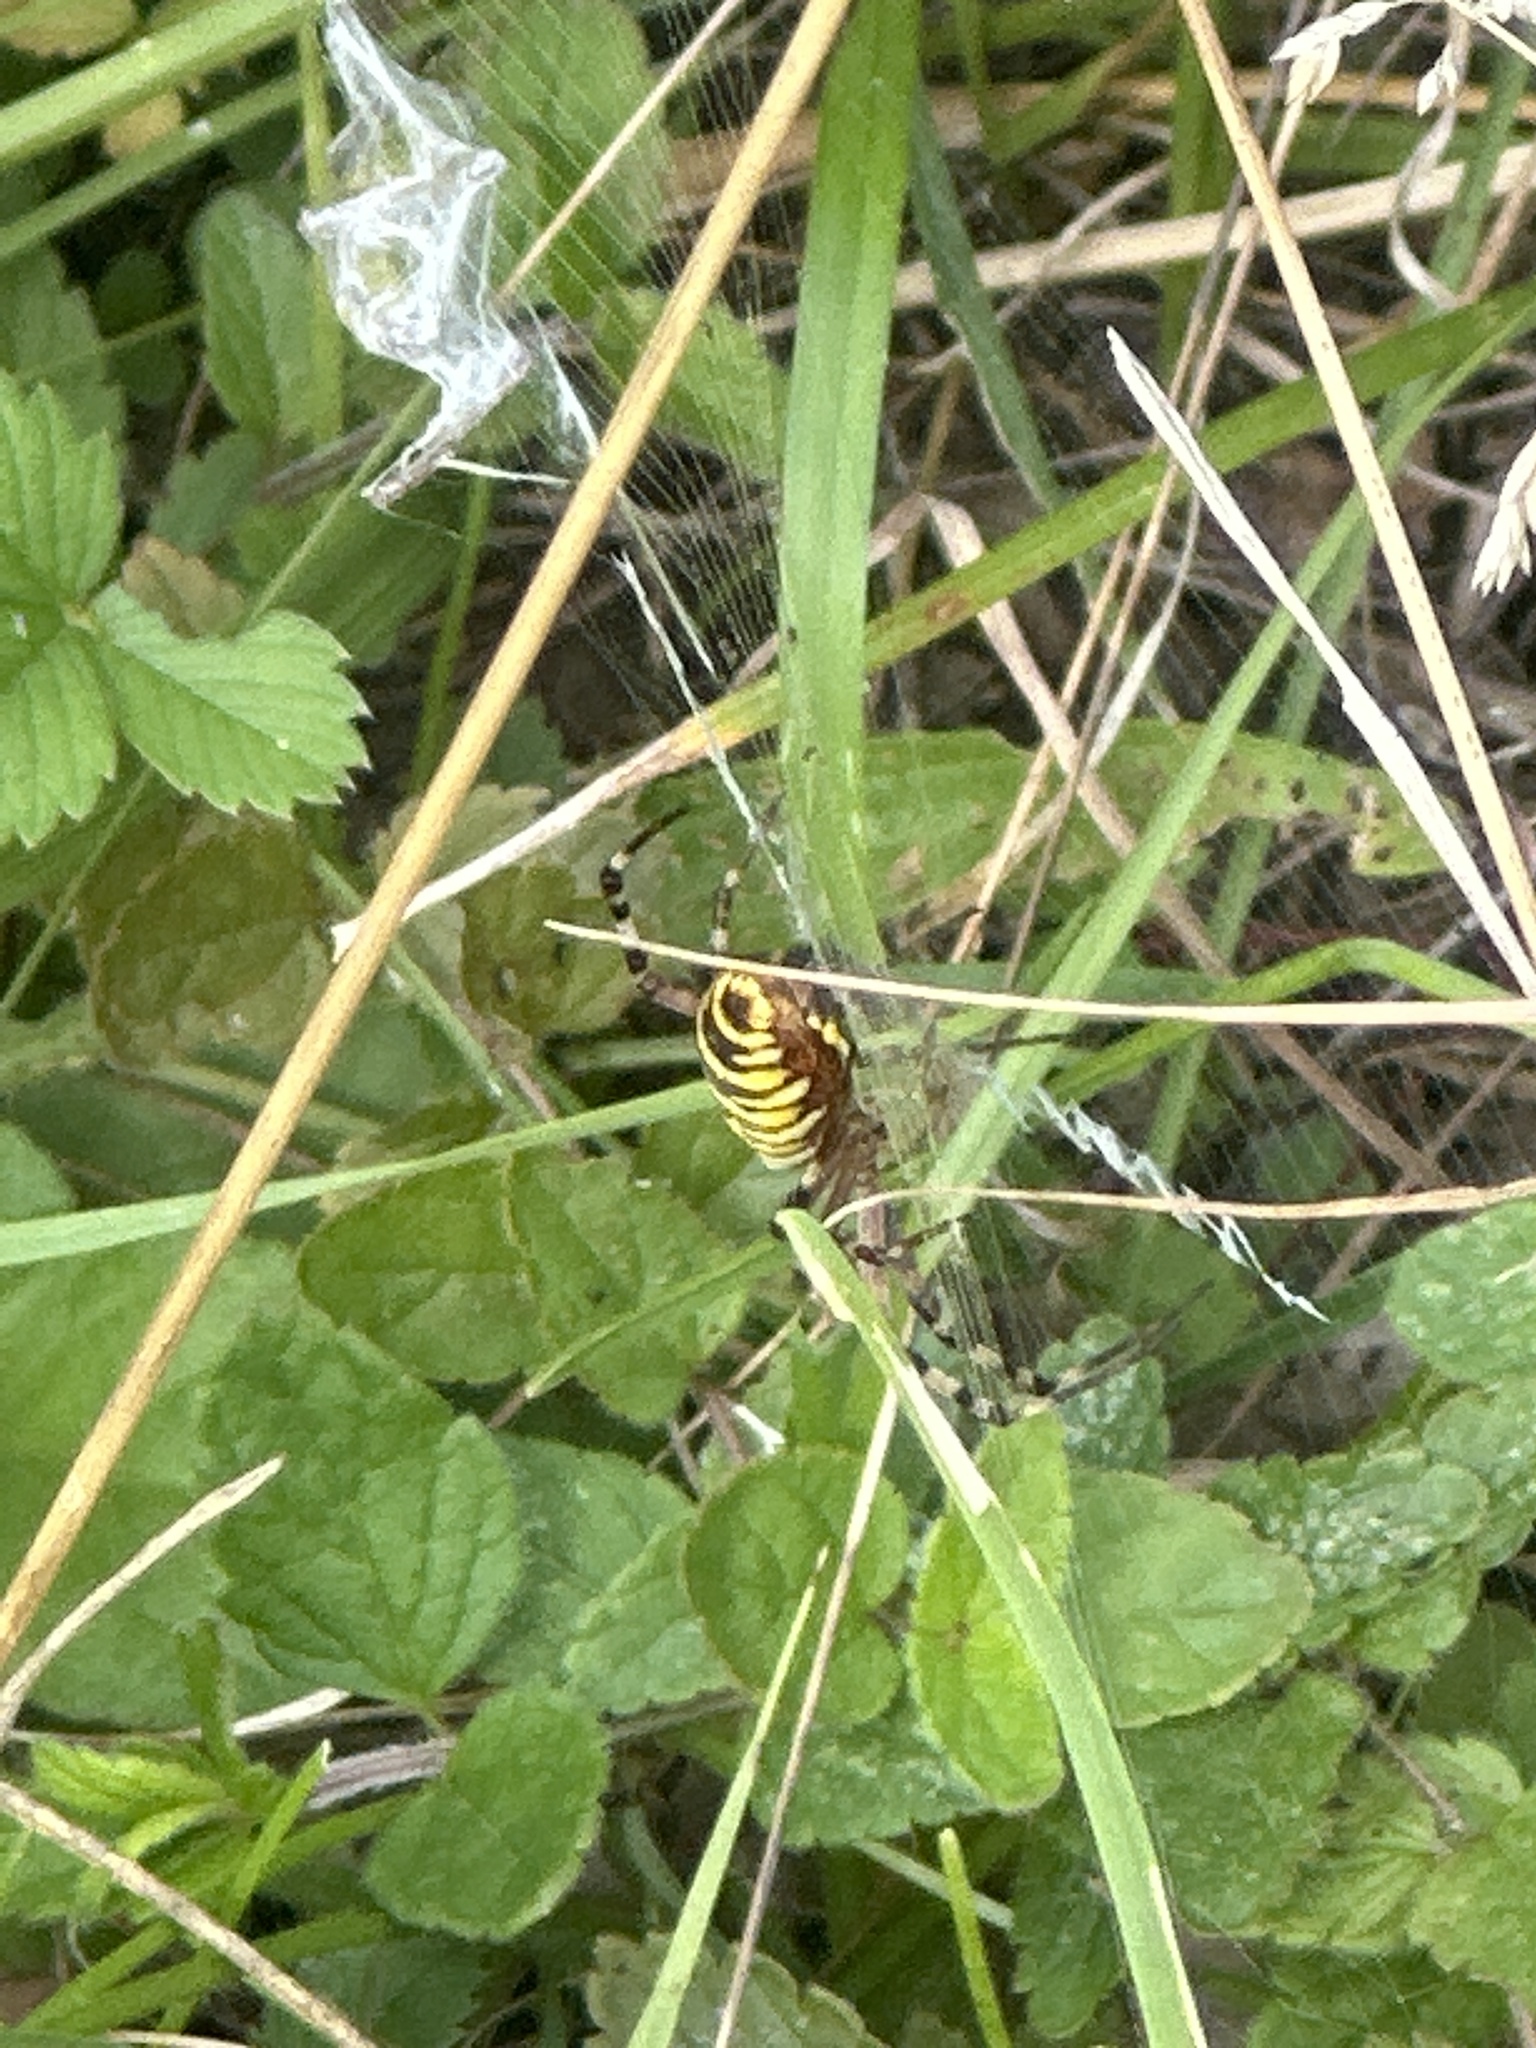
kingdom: Animalia
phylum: Arthropoda
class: Arachnida
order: Araneae
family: Araneidae
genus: Argiope
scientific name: Argiope bruennichi
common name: Wasp spider
